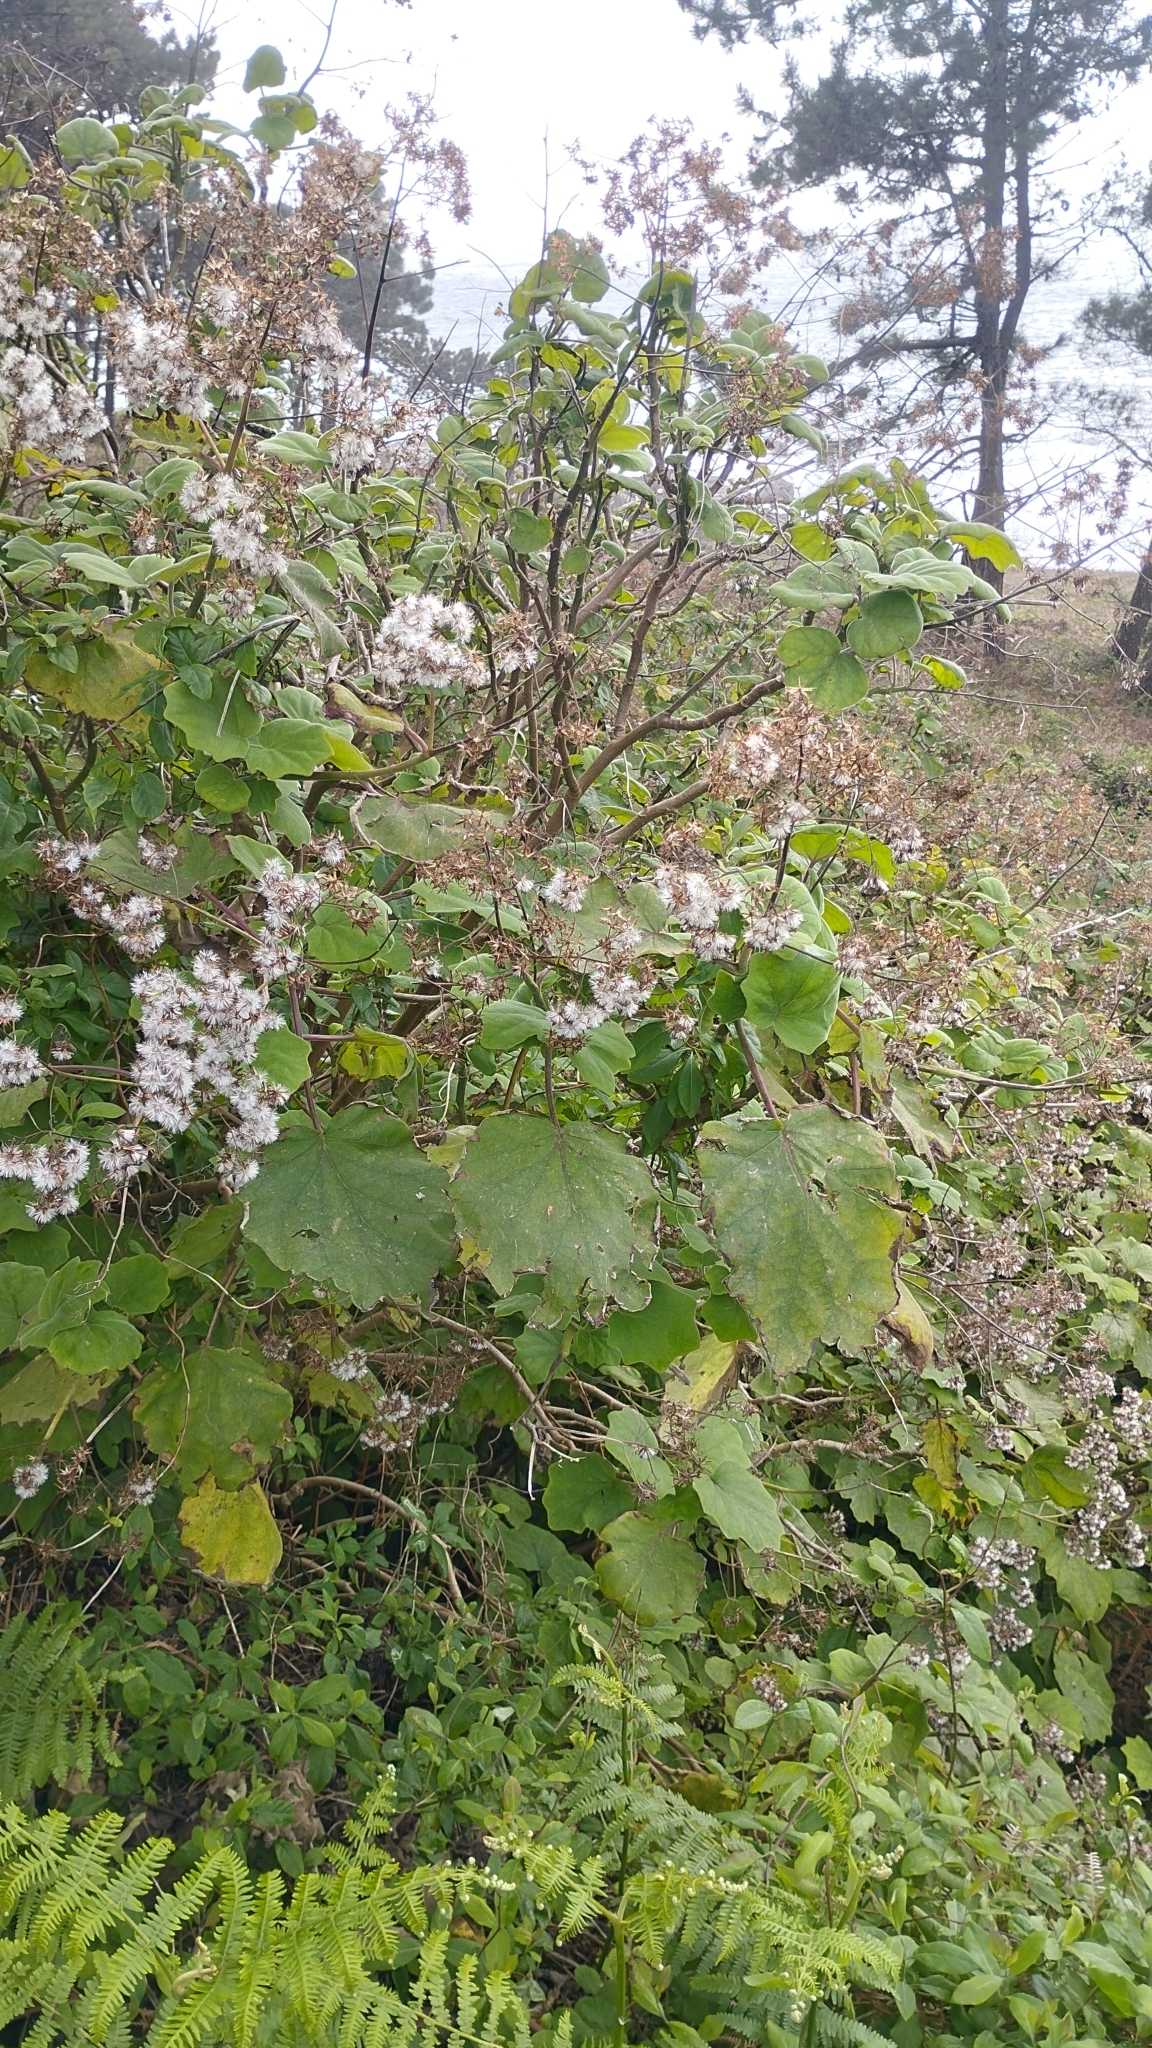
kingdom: Plantae
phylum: Tracheophyta
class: Magnoliopsida
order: Asterales
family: Asteraceae
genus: Roldana
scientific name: Roldana petasitis
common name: California-geranium
